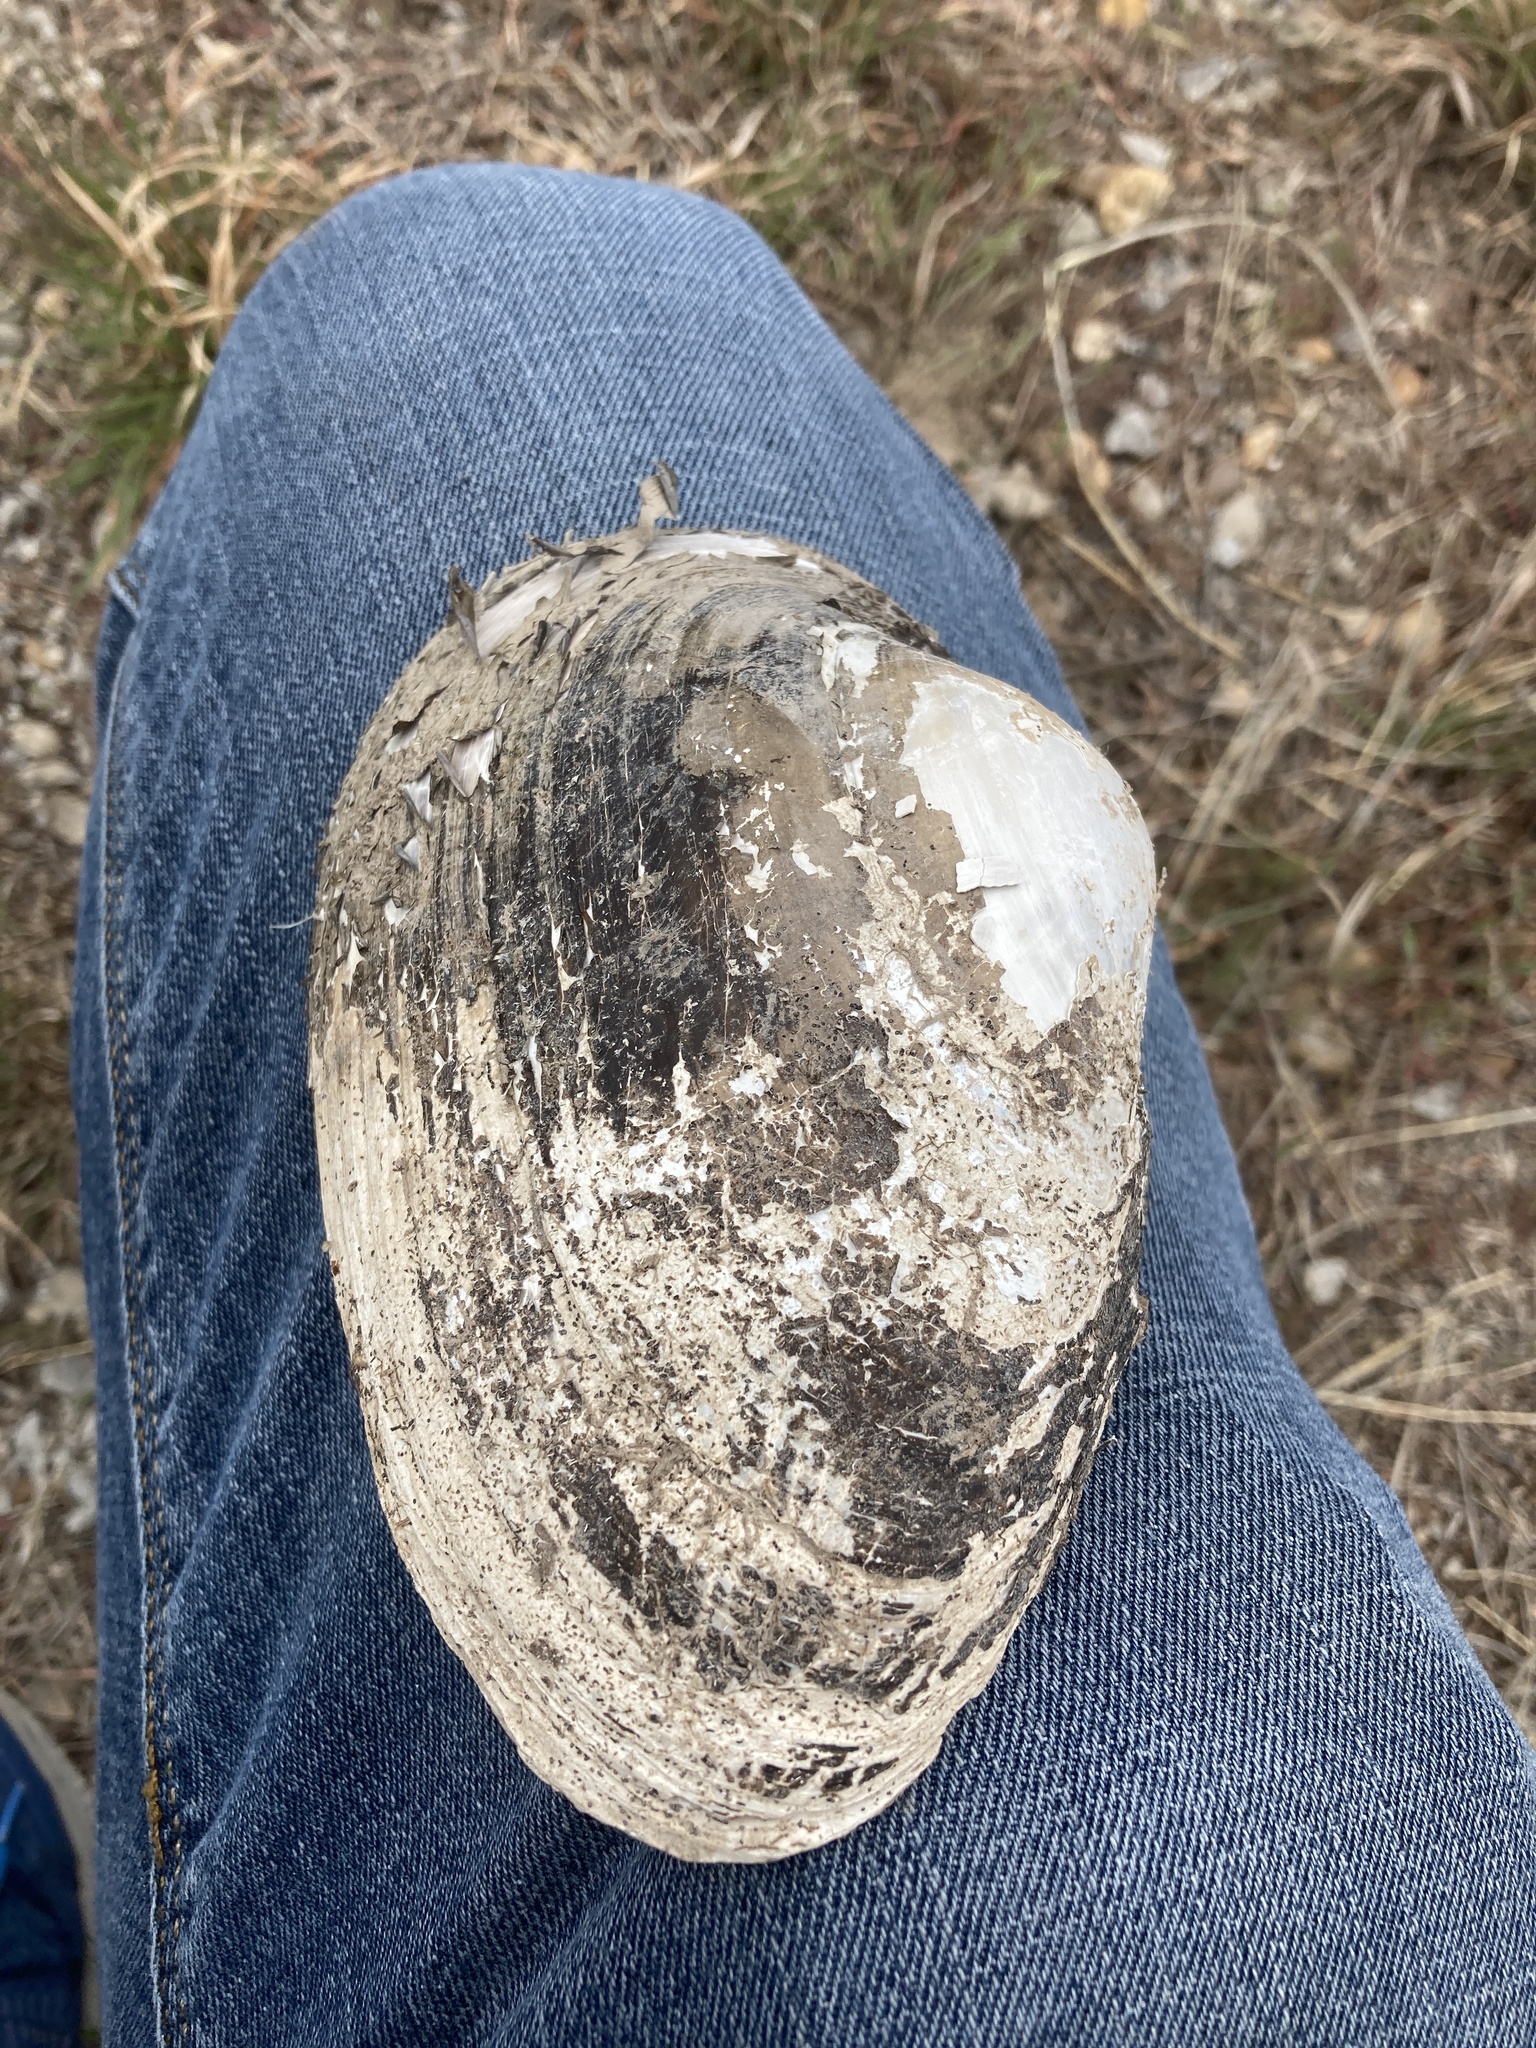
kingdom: Animalia
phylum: Mollusca
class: Bivalvia
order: Unionida
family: Unionidae
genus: Pyganodon
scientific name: Pyganodon grandis
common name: Giant floater
